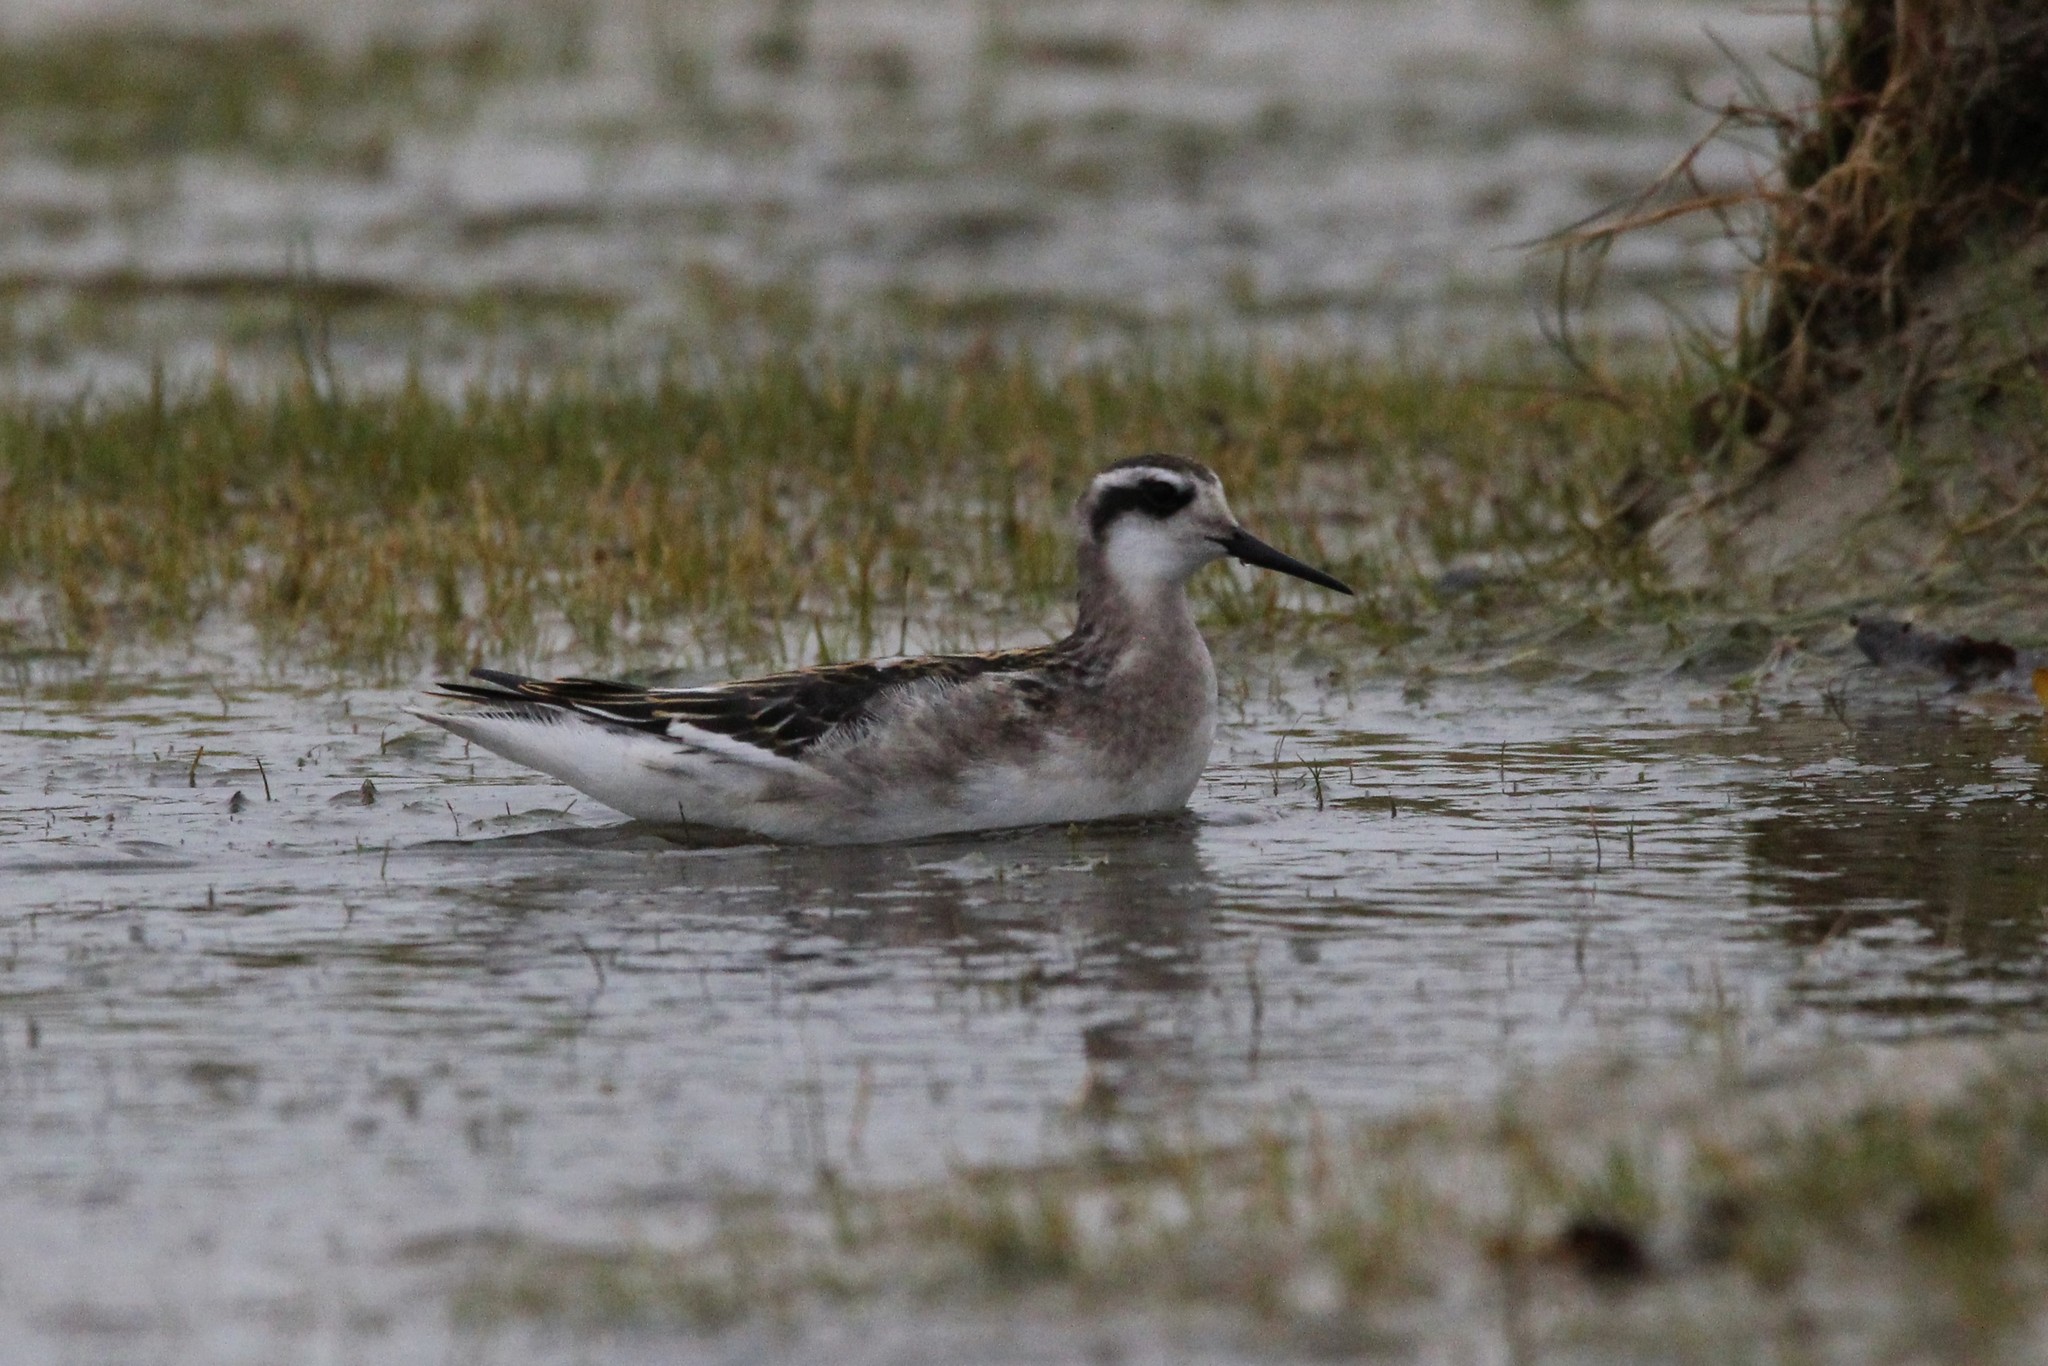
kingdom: Animalia
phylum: Chordata
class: Aves
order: Charadriiformes
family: Scolopacidae
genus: Phalaropus
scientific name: Phalaropus lobatus
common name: Red-necked phalarope
